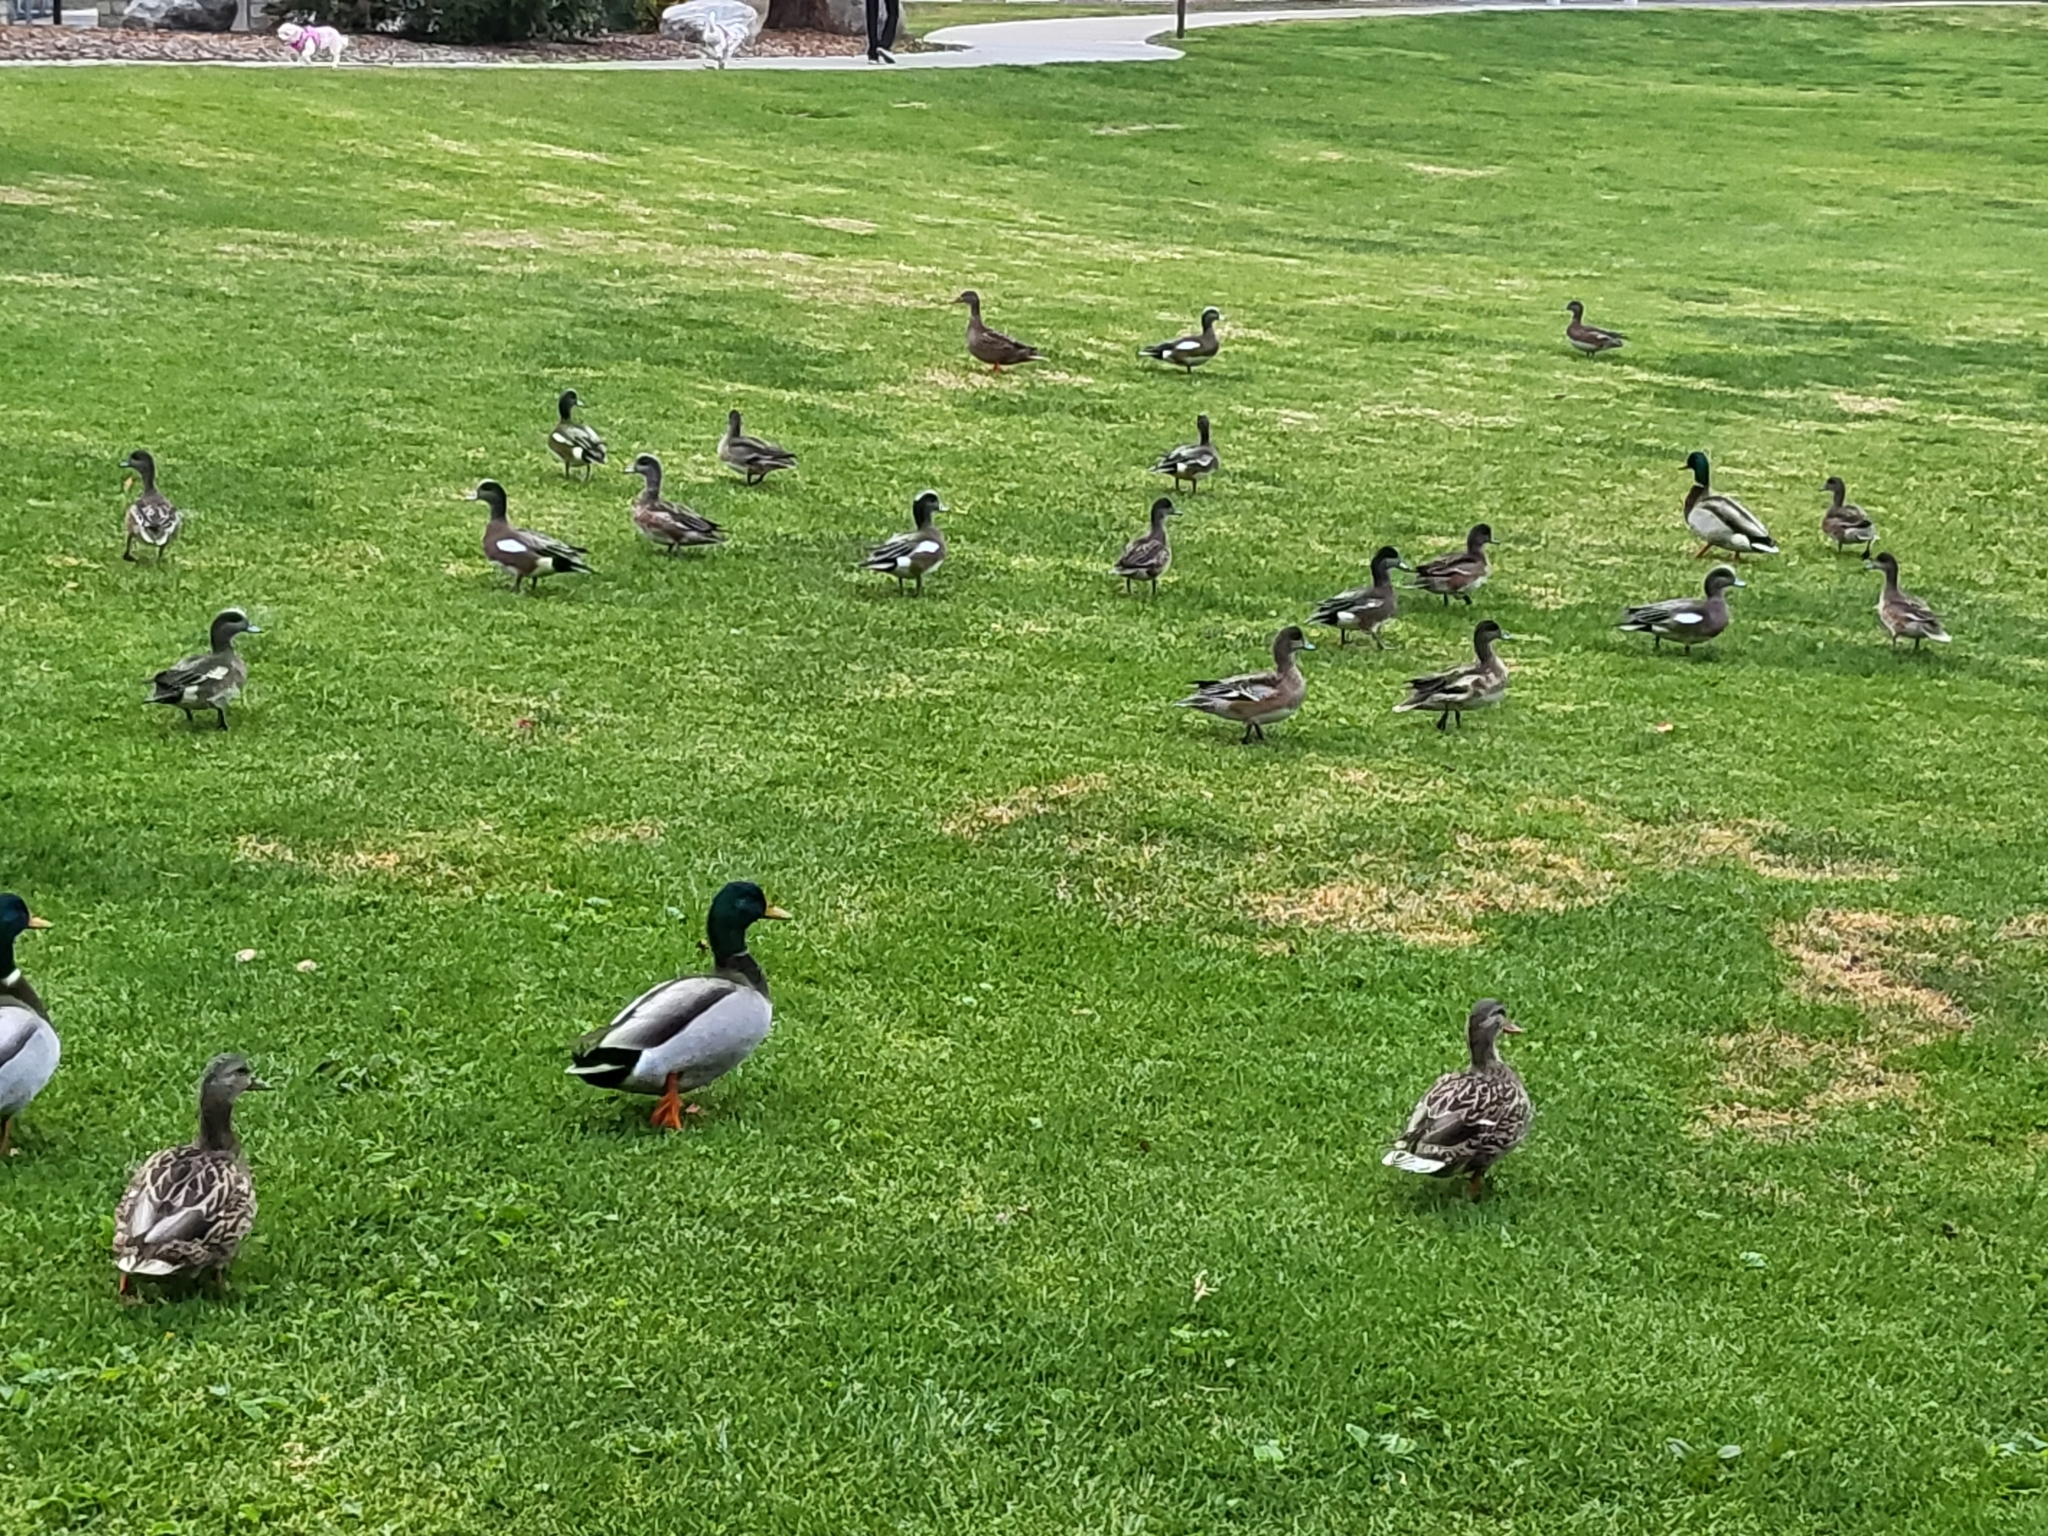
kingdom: Animalia
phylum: Chordata
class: Aves
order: Anseriformes
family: Anatidae
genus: Anas
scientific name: Anas platyrhynchos
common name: Mallard
